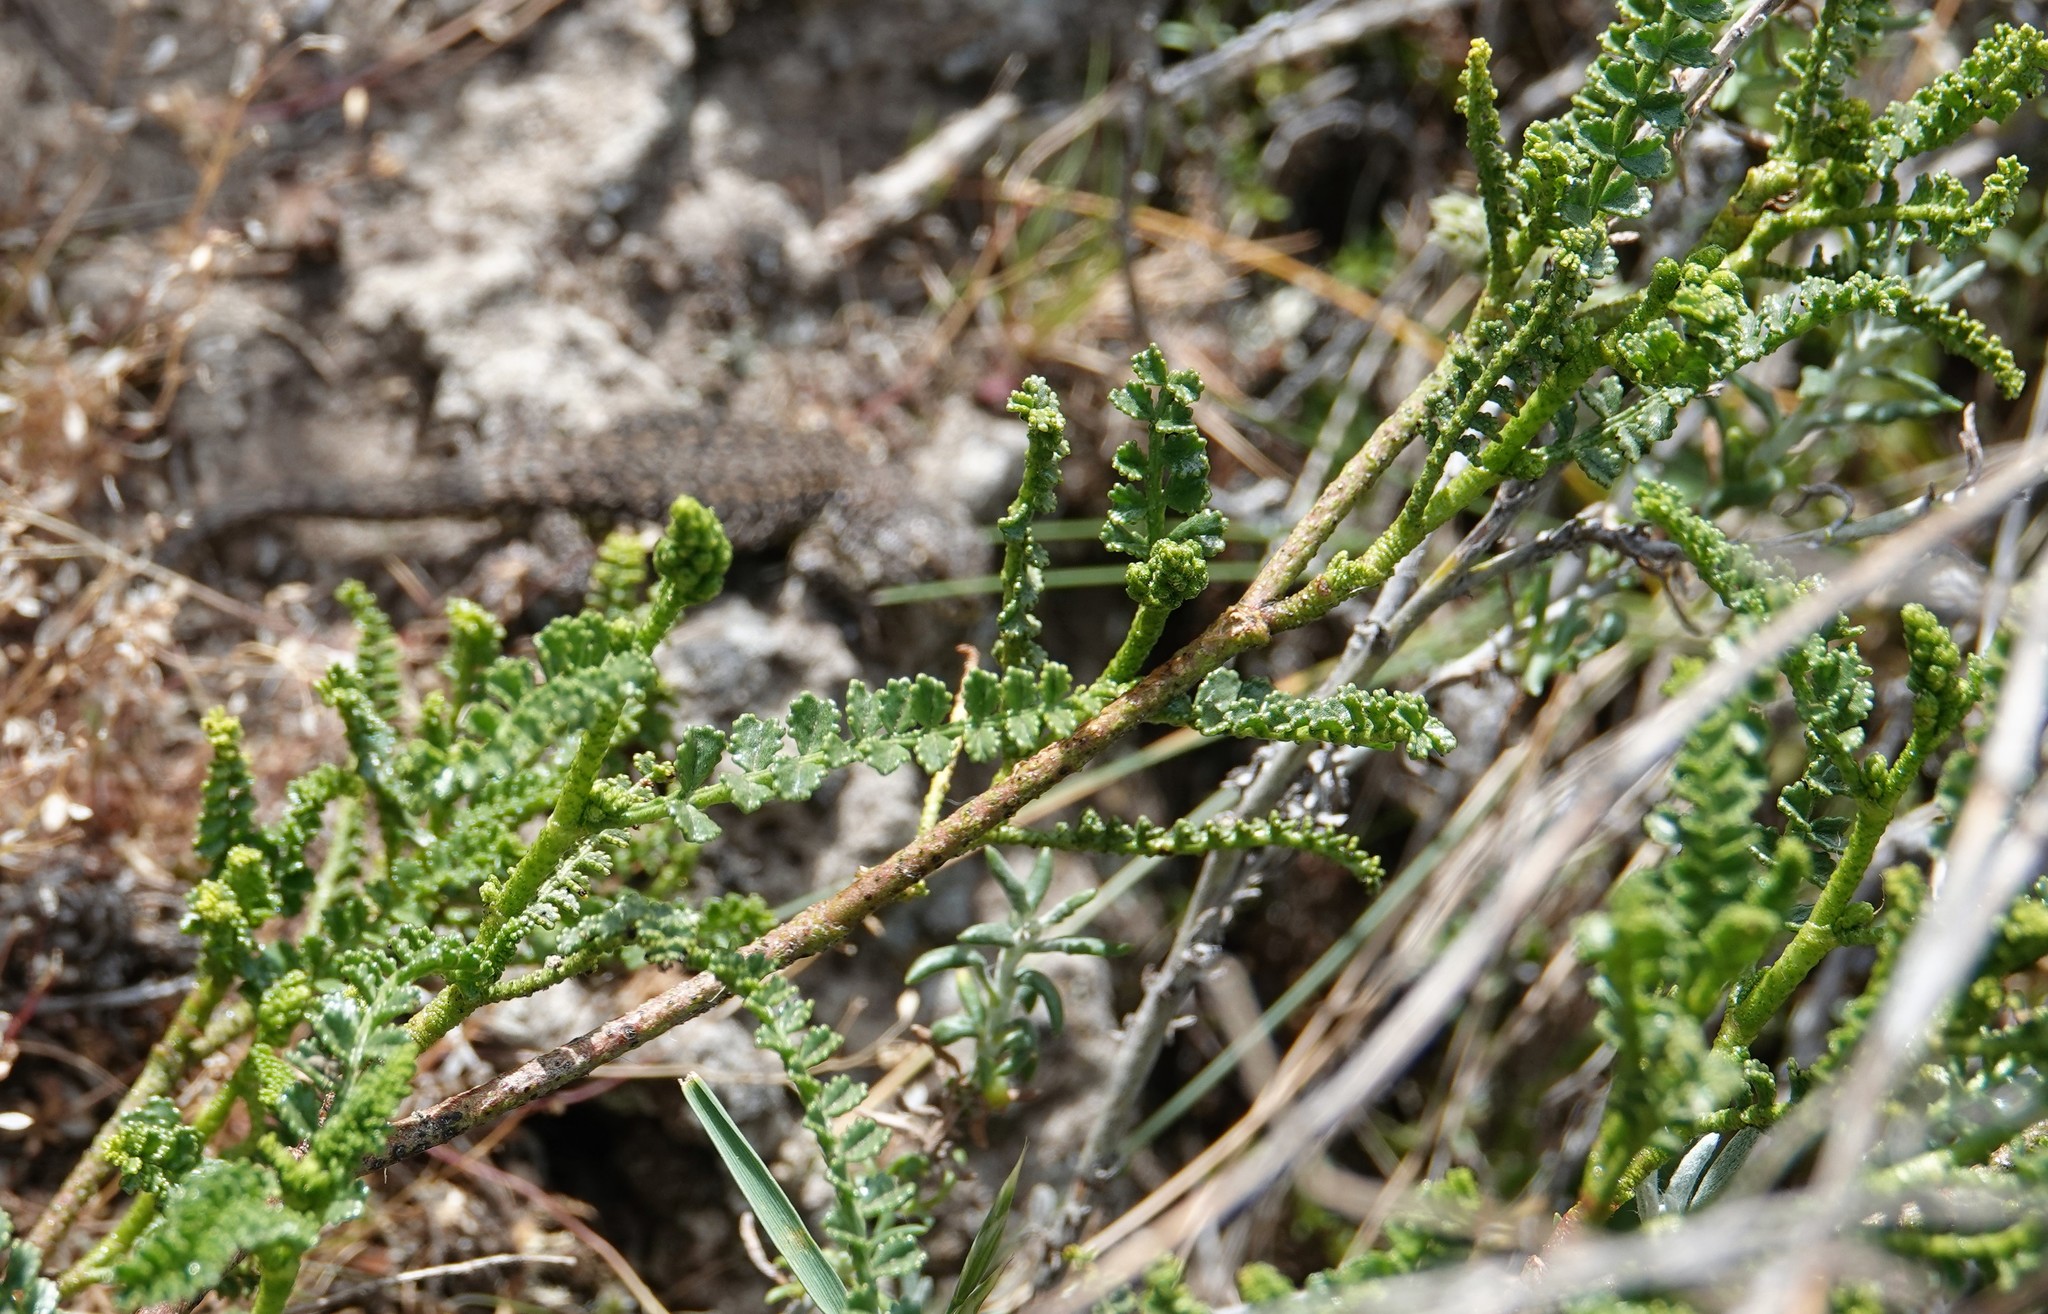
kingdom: Plantae
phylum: Tracheophyta
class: Magnoliopsida
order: Fabales
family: Fabaceae
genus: Adesmia
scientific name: Adesmia boronioides
